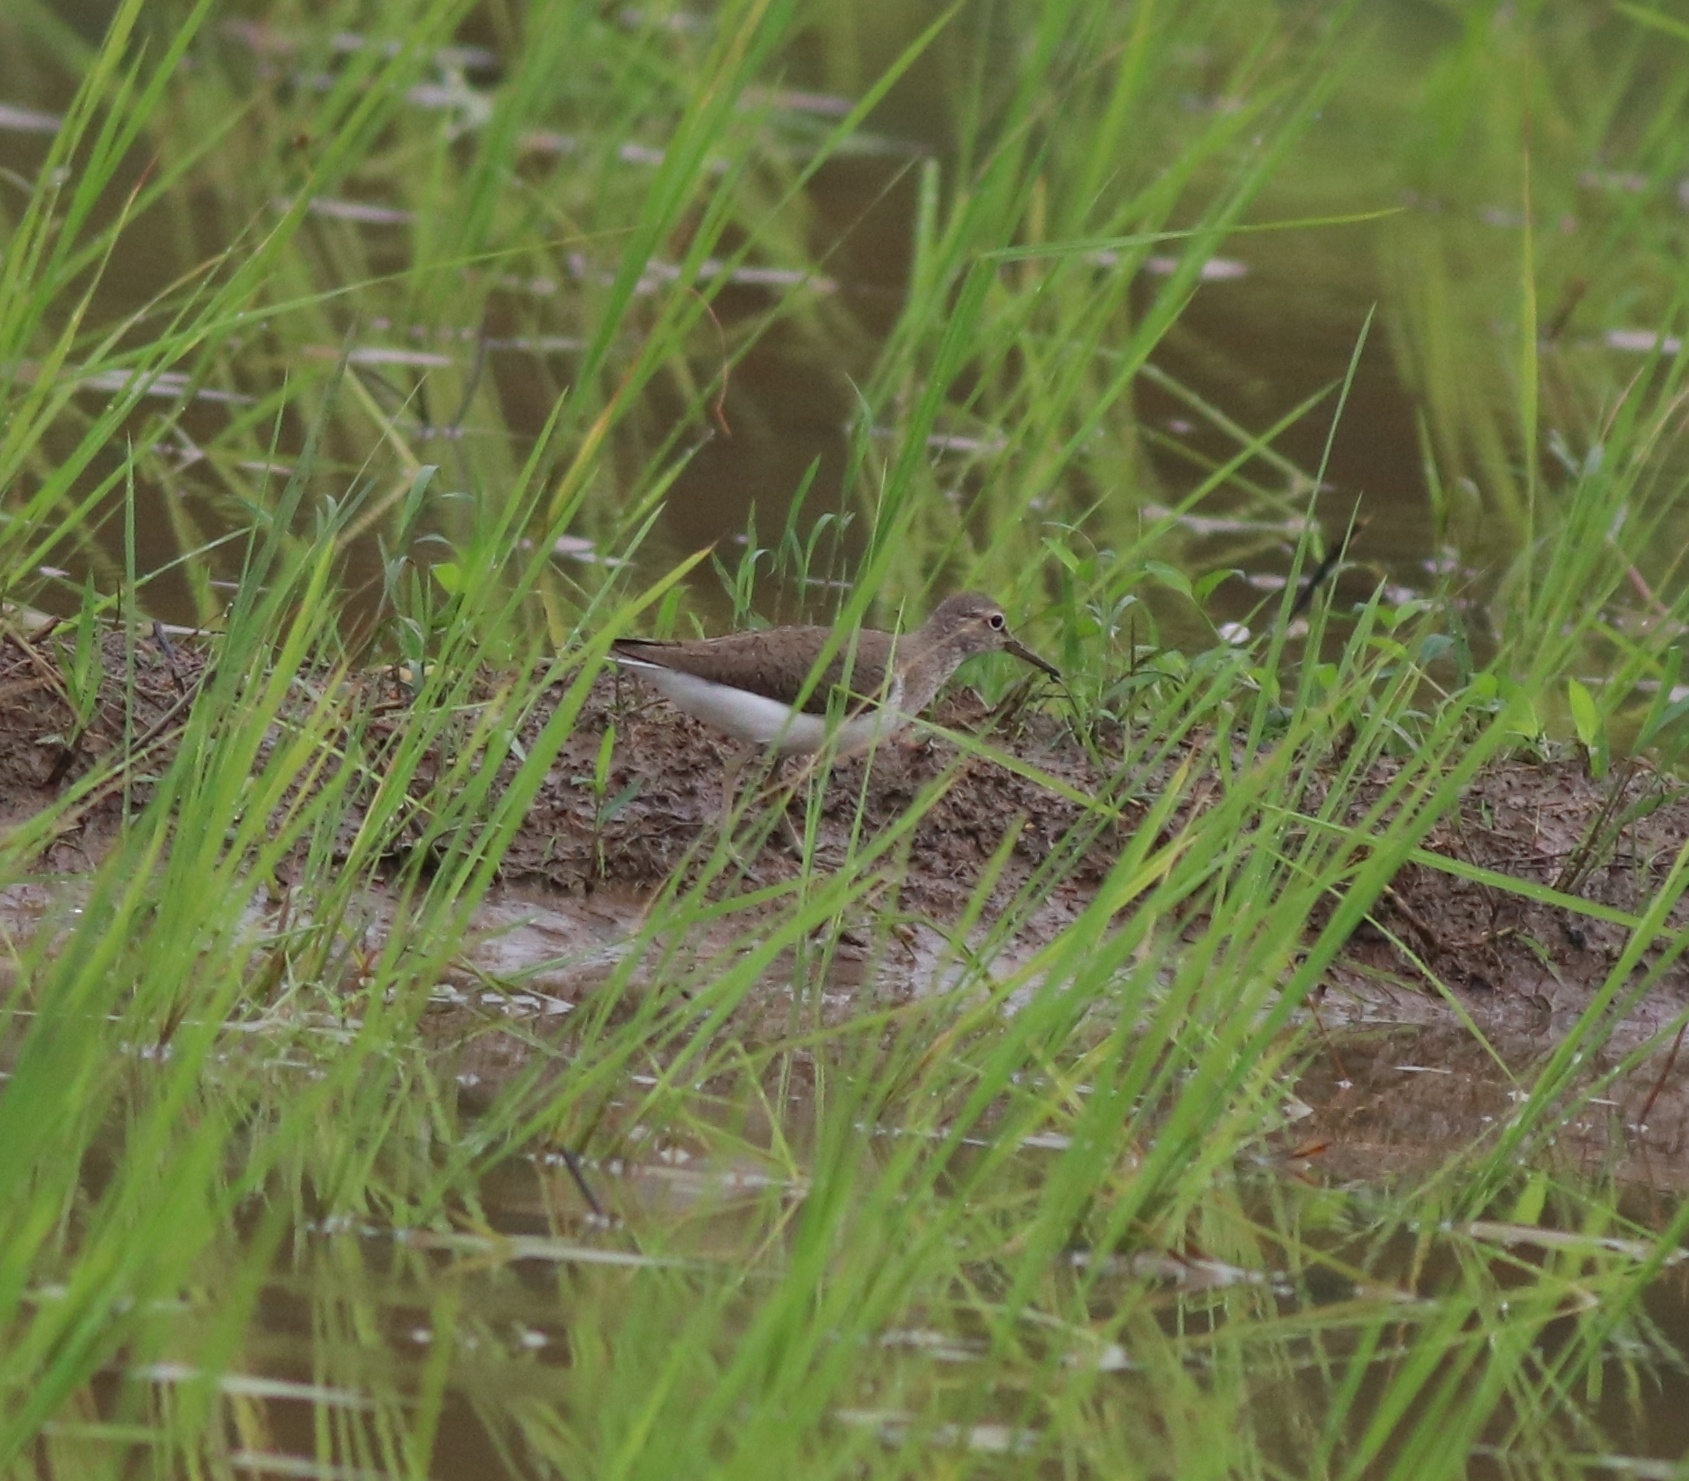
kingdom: Animalia
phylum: Chordata
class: Aves
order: Charadriiformes
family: Scolopacidae
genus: Actitis
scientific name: Actitis hypoleucos
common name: Common sandpiper
